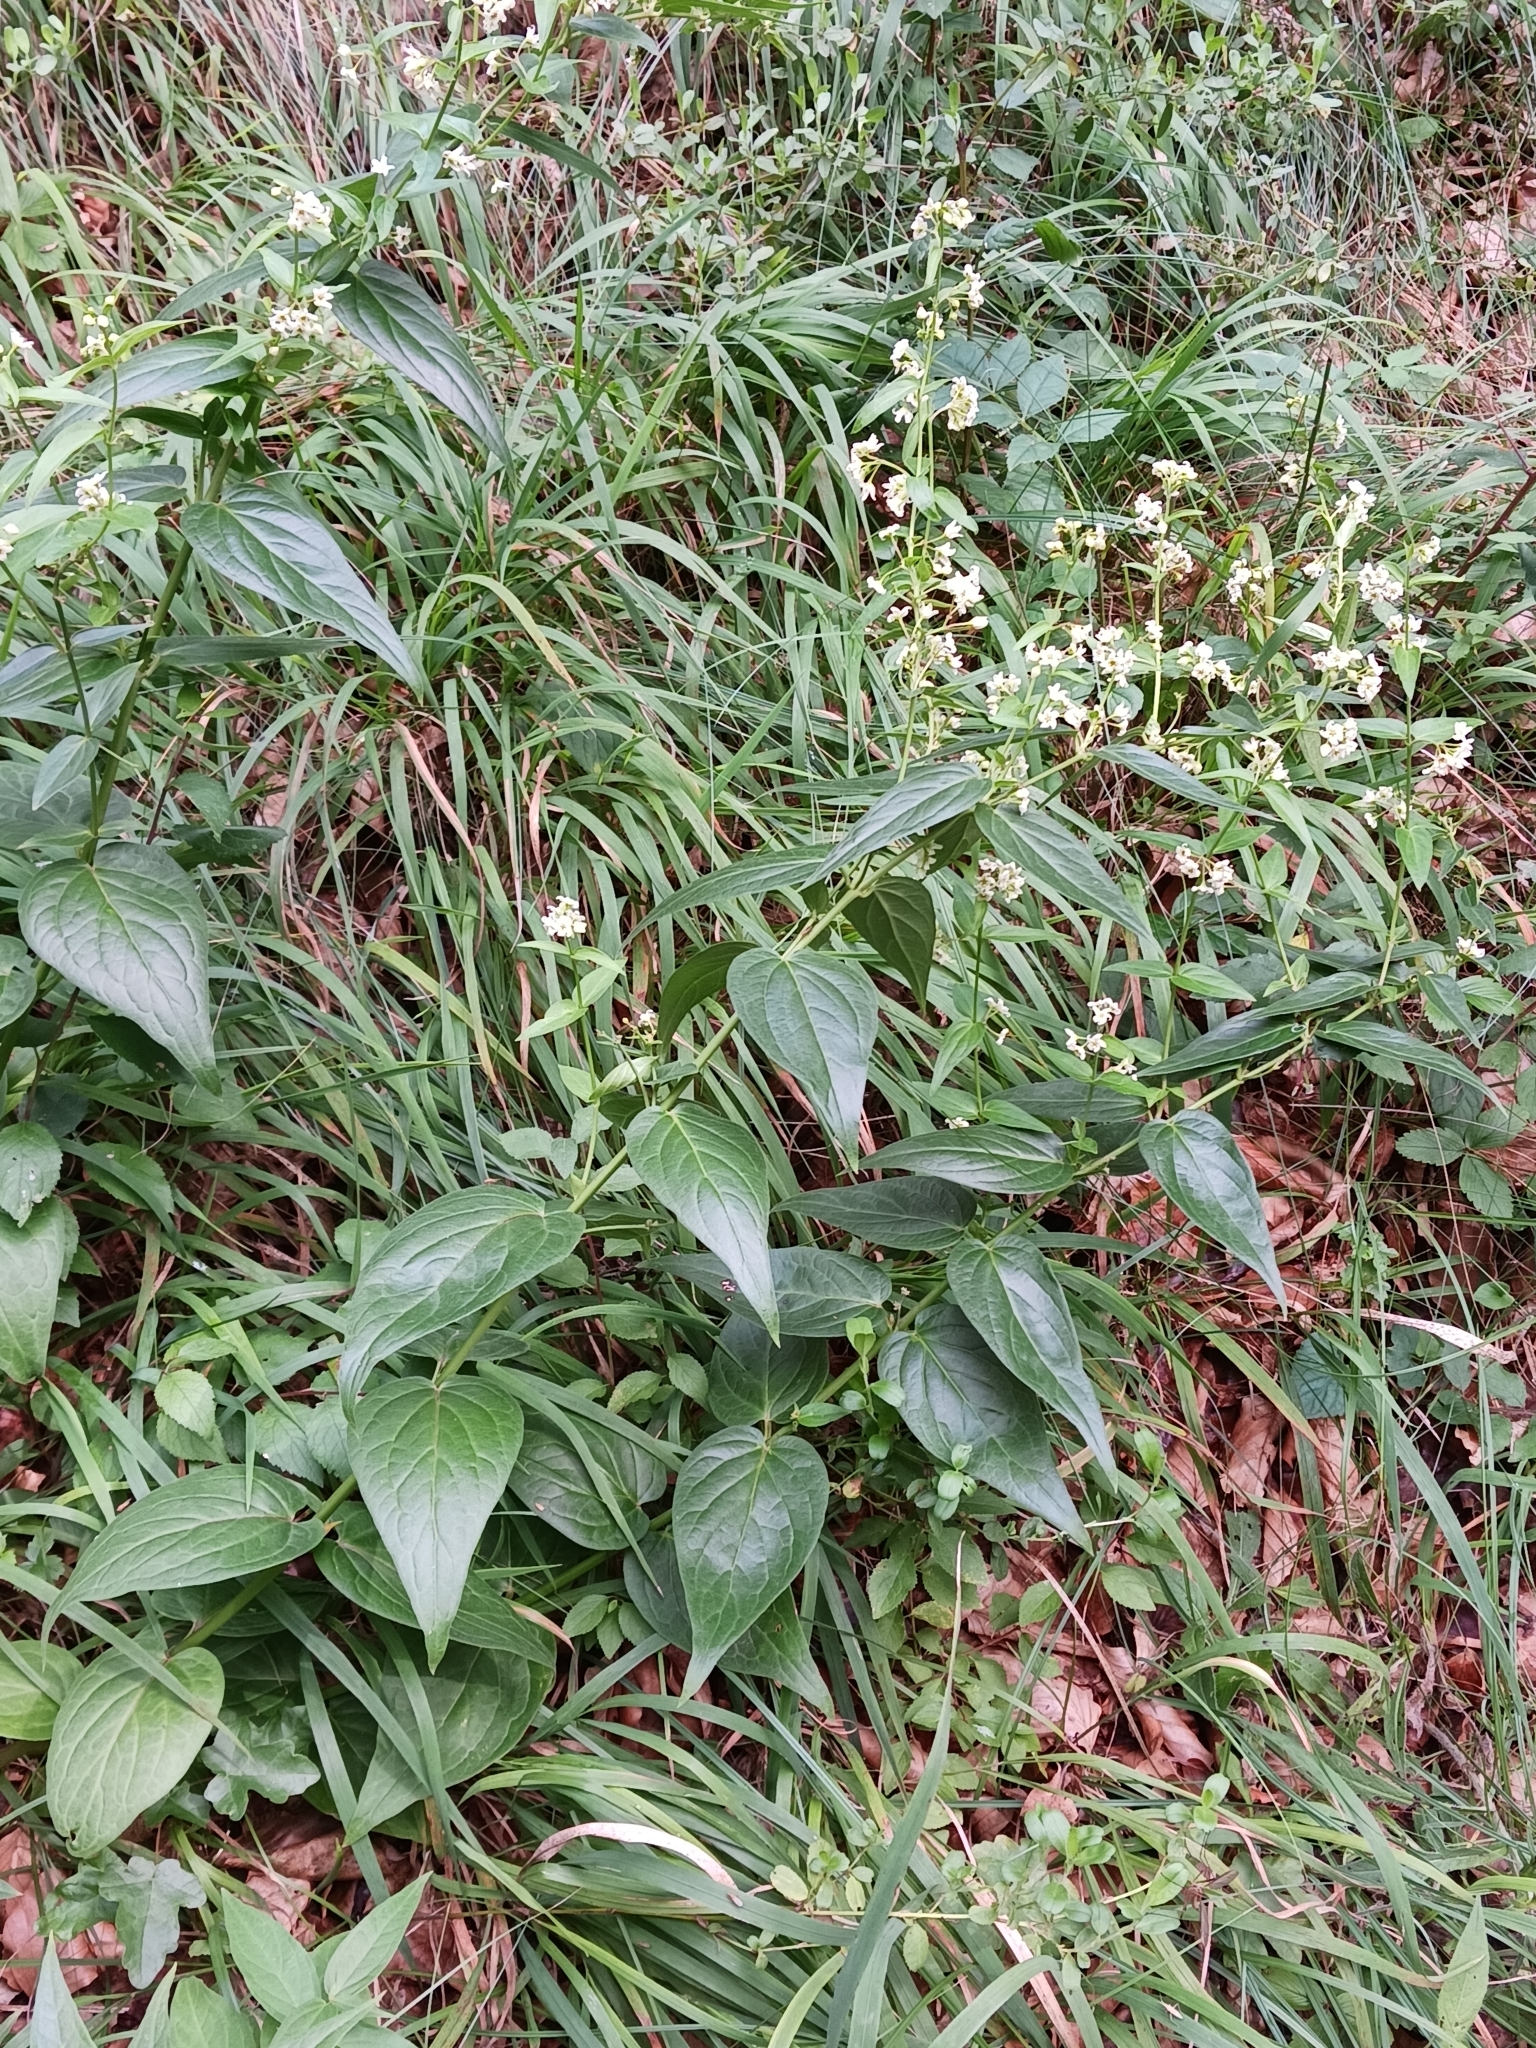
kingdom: Plantae
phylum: Tracheophyta
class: Magnoliopsida
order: Gentianales
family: Apocynaceae
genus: Vincetoxicum
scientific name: Vincetoxicum hirundinaria
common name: White swallowwort
